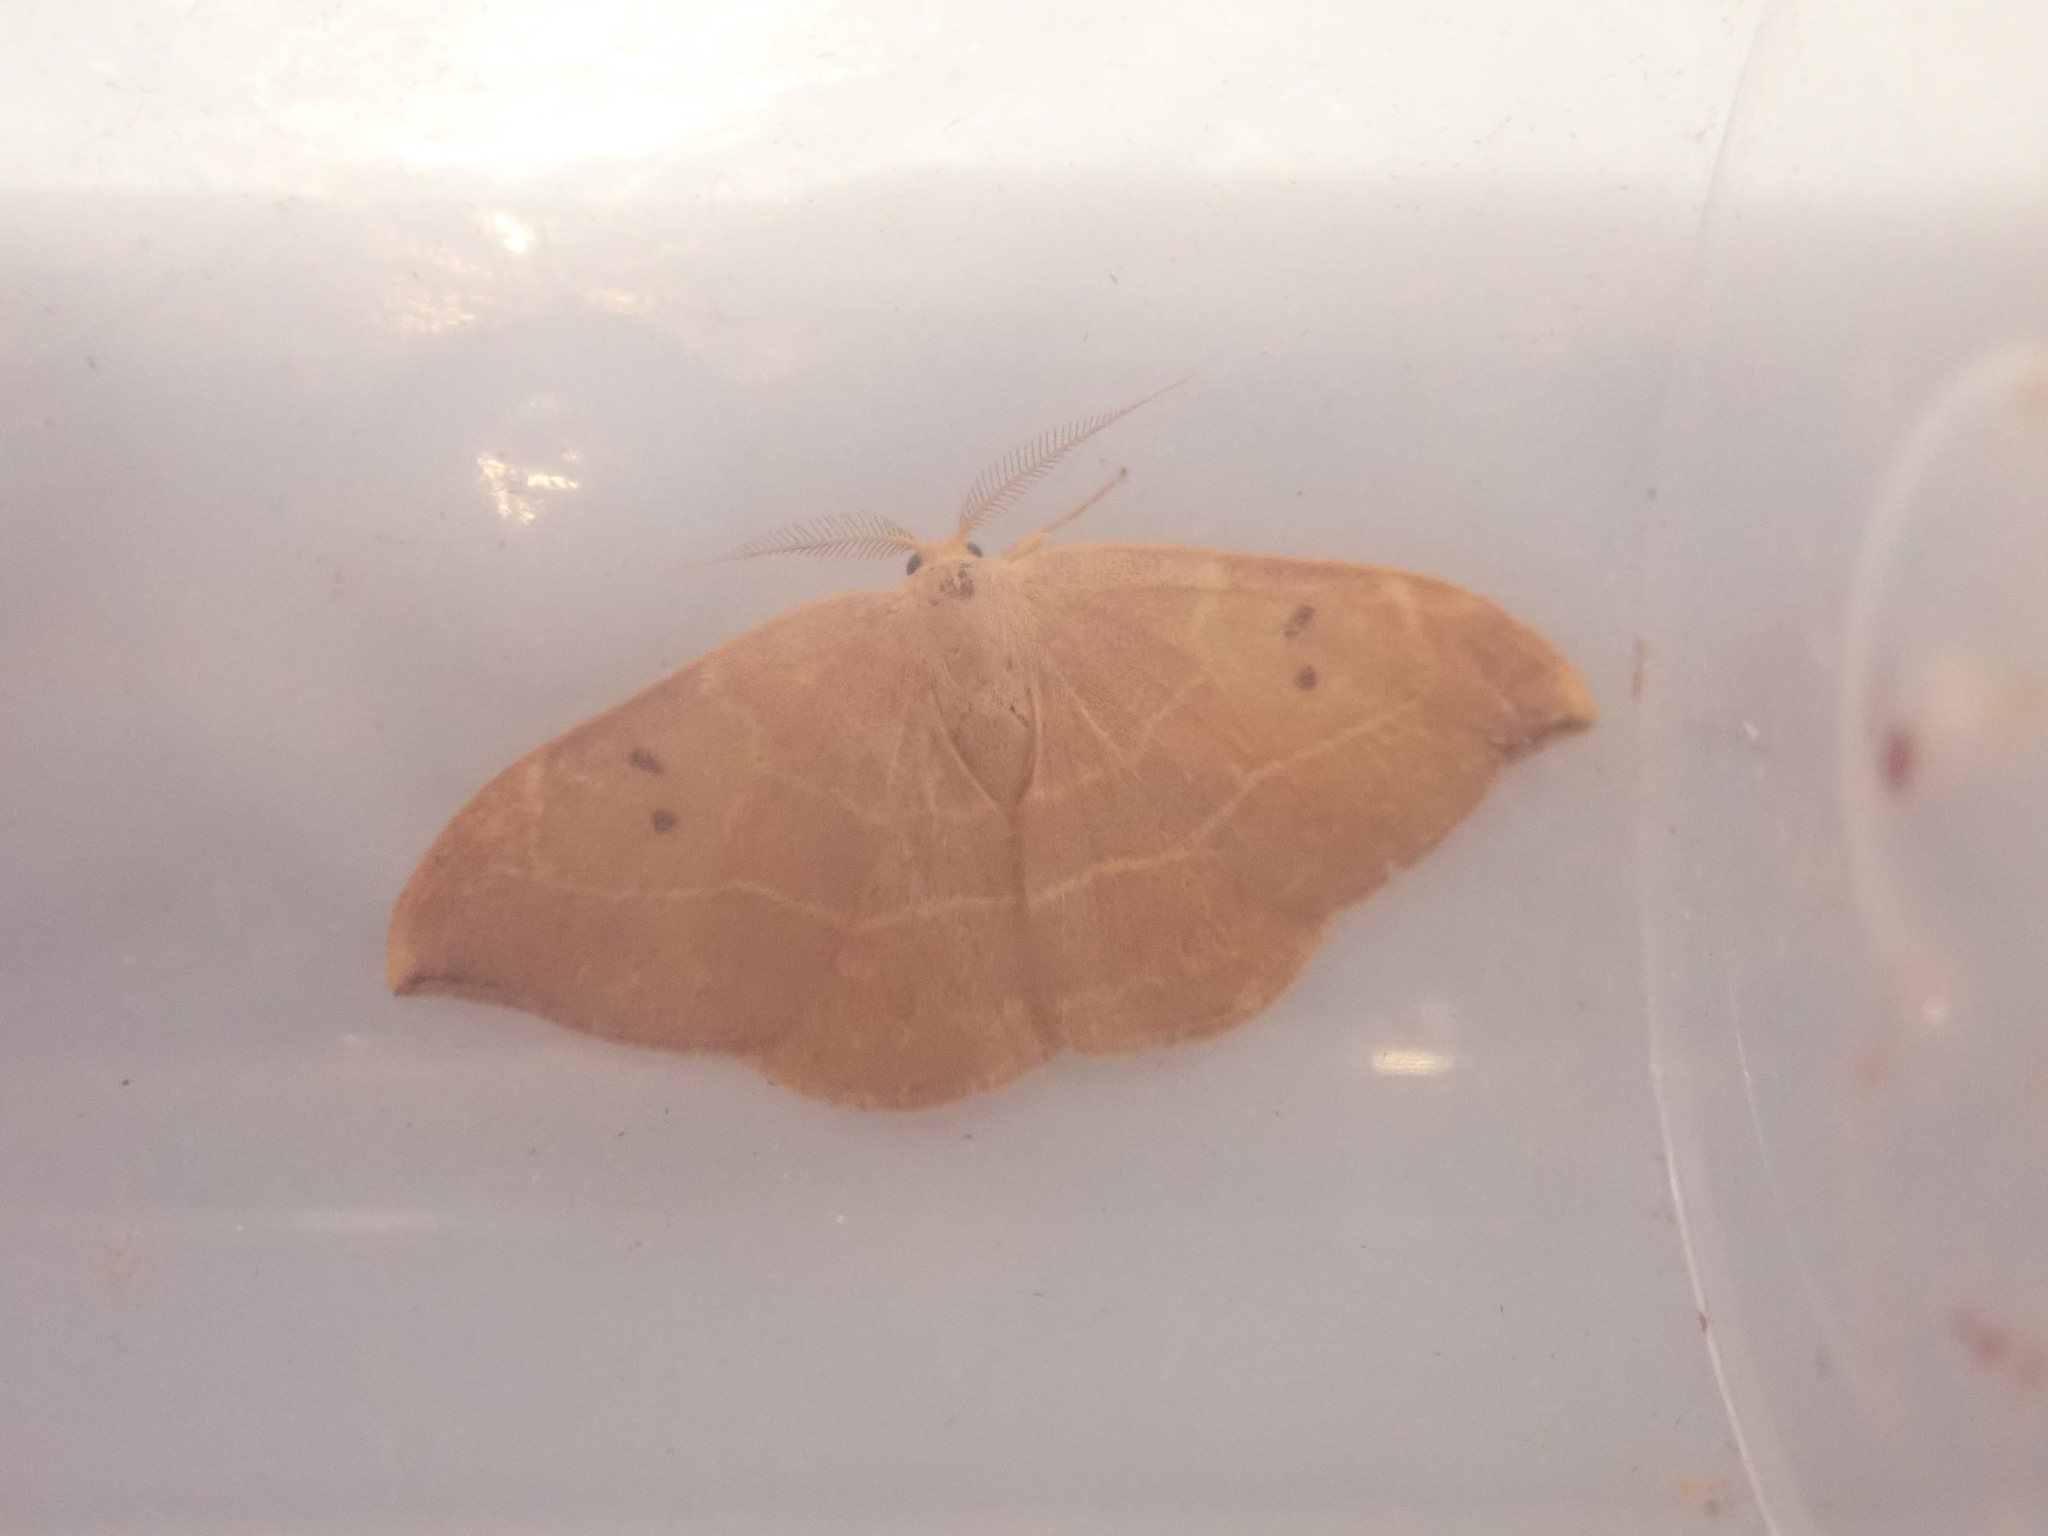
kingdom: Animalia
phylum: Arthropoda
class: Insecta
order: Lepidoptera
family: Drepanidae
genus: Watsonalla
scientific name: Watsonalla binaria
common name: Oak hook-tip
